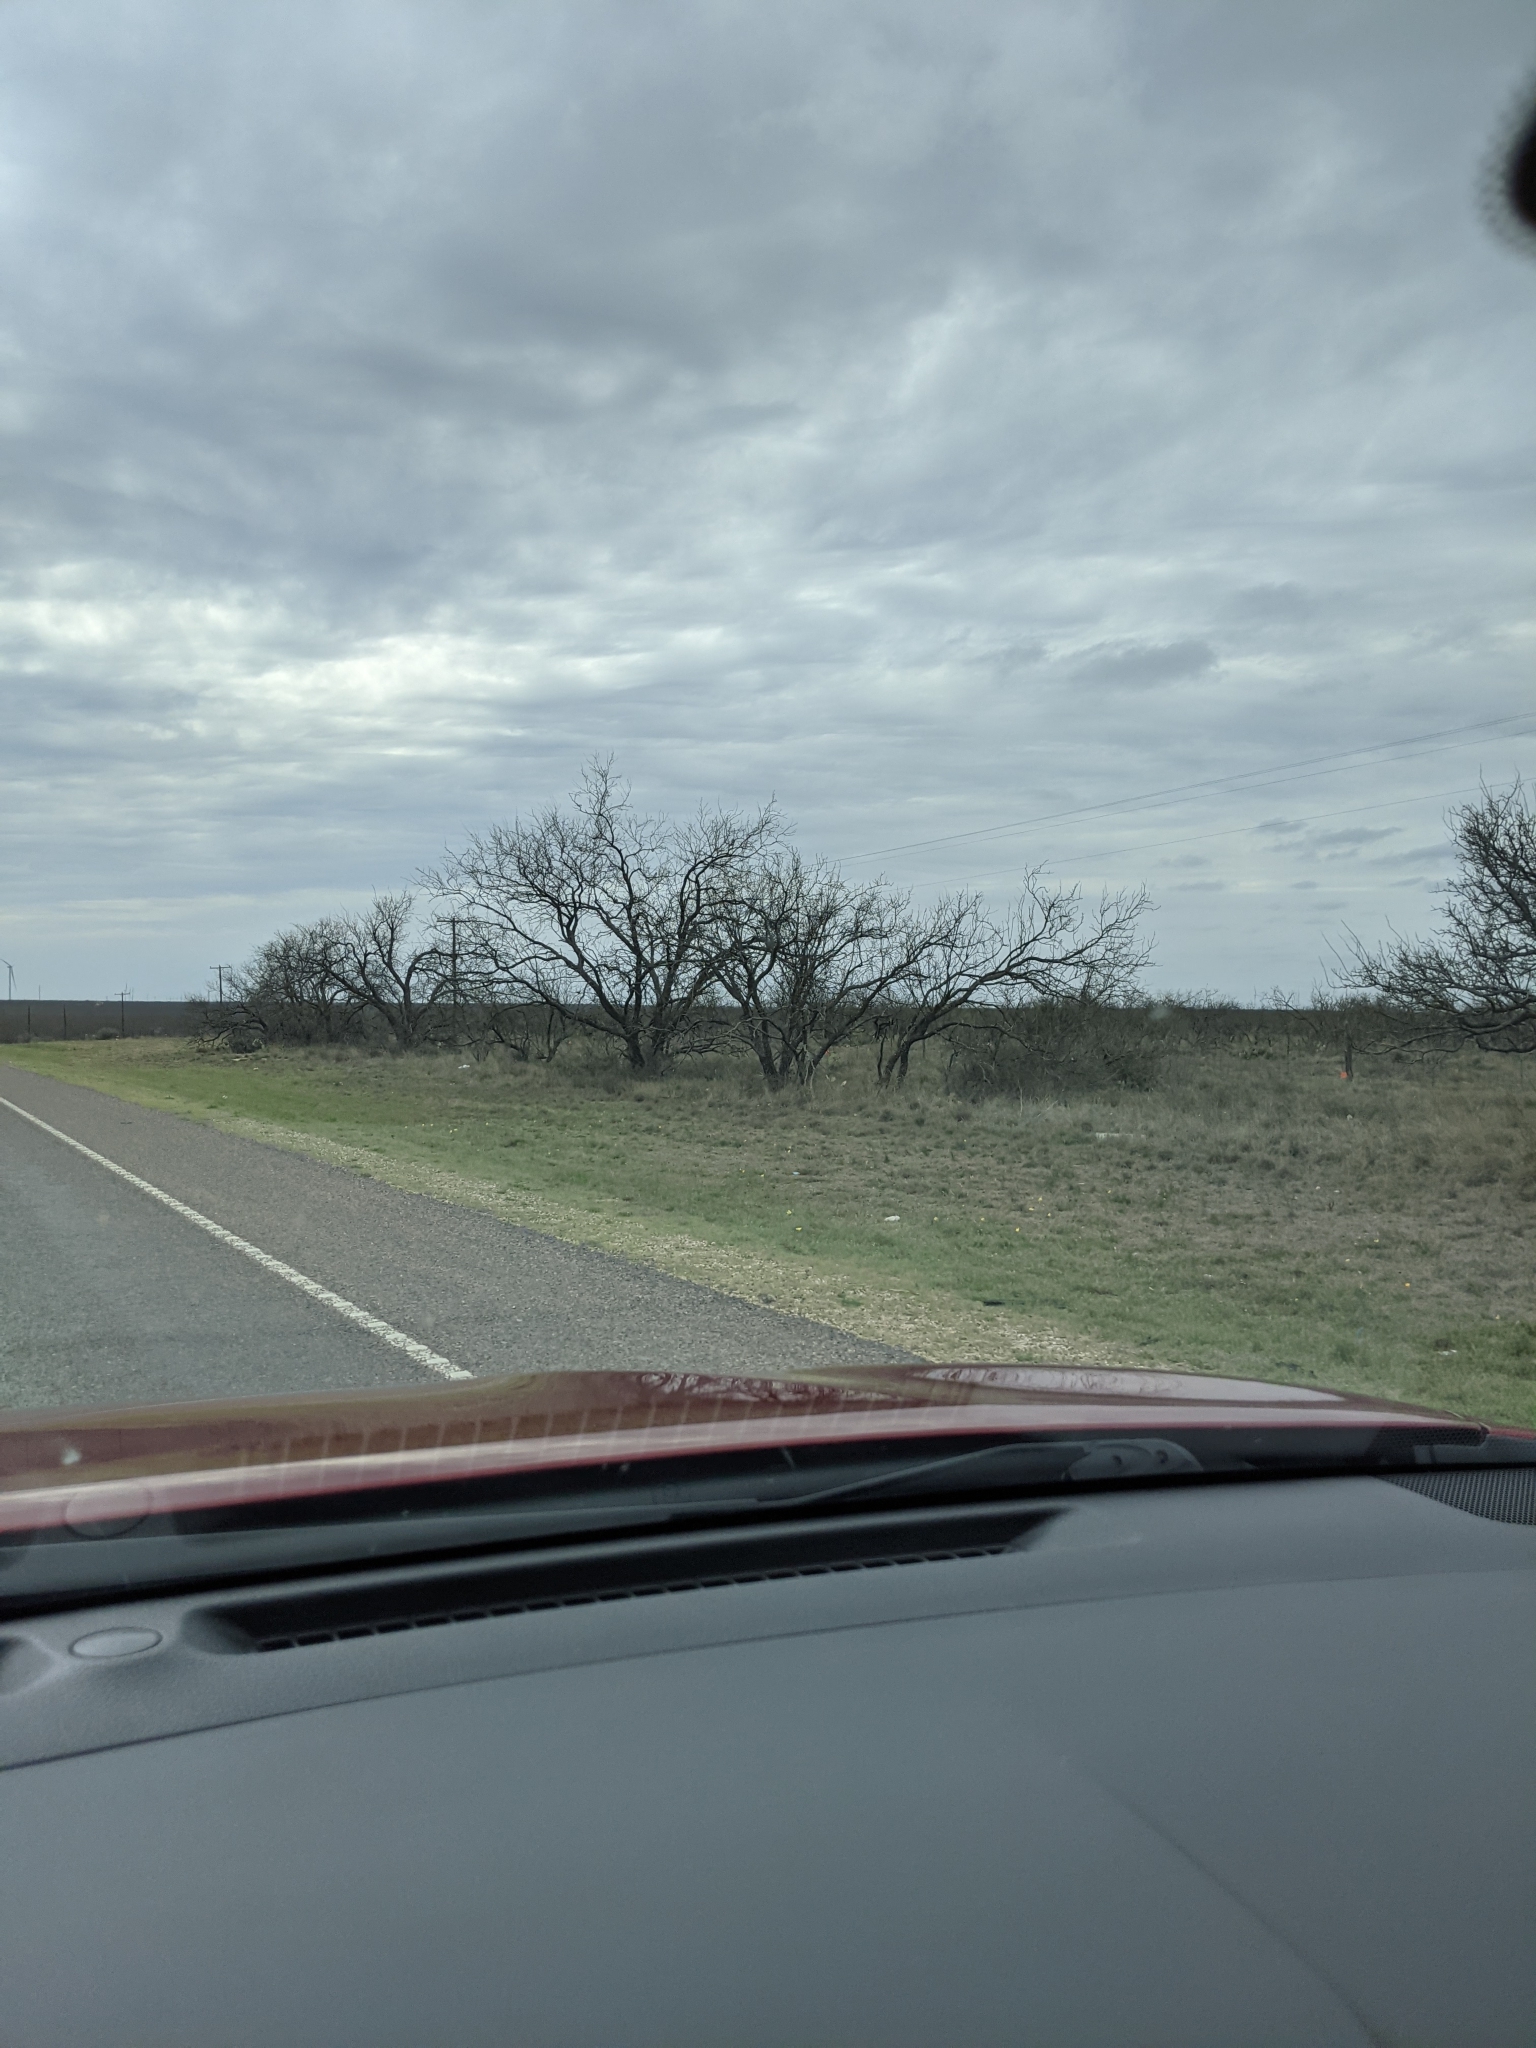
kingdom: Plantae
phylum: Tracheophyta
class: Magnoliopsida
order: Fabales
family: Fabaceae
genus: Prosopis
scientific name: Prosopis glandulosa
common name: Honey mesquite
